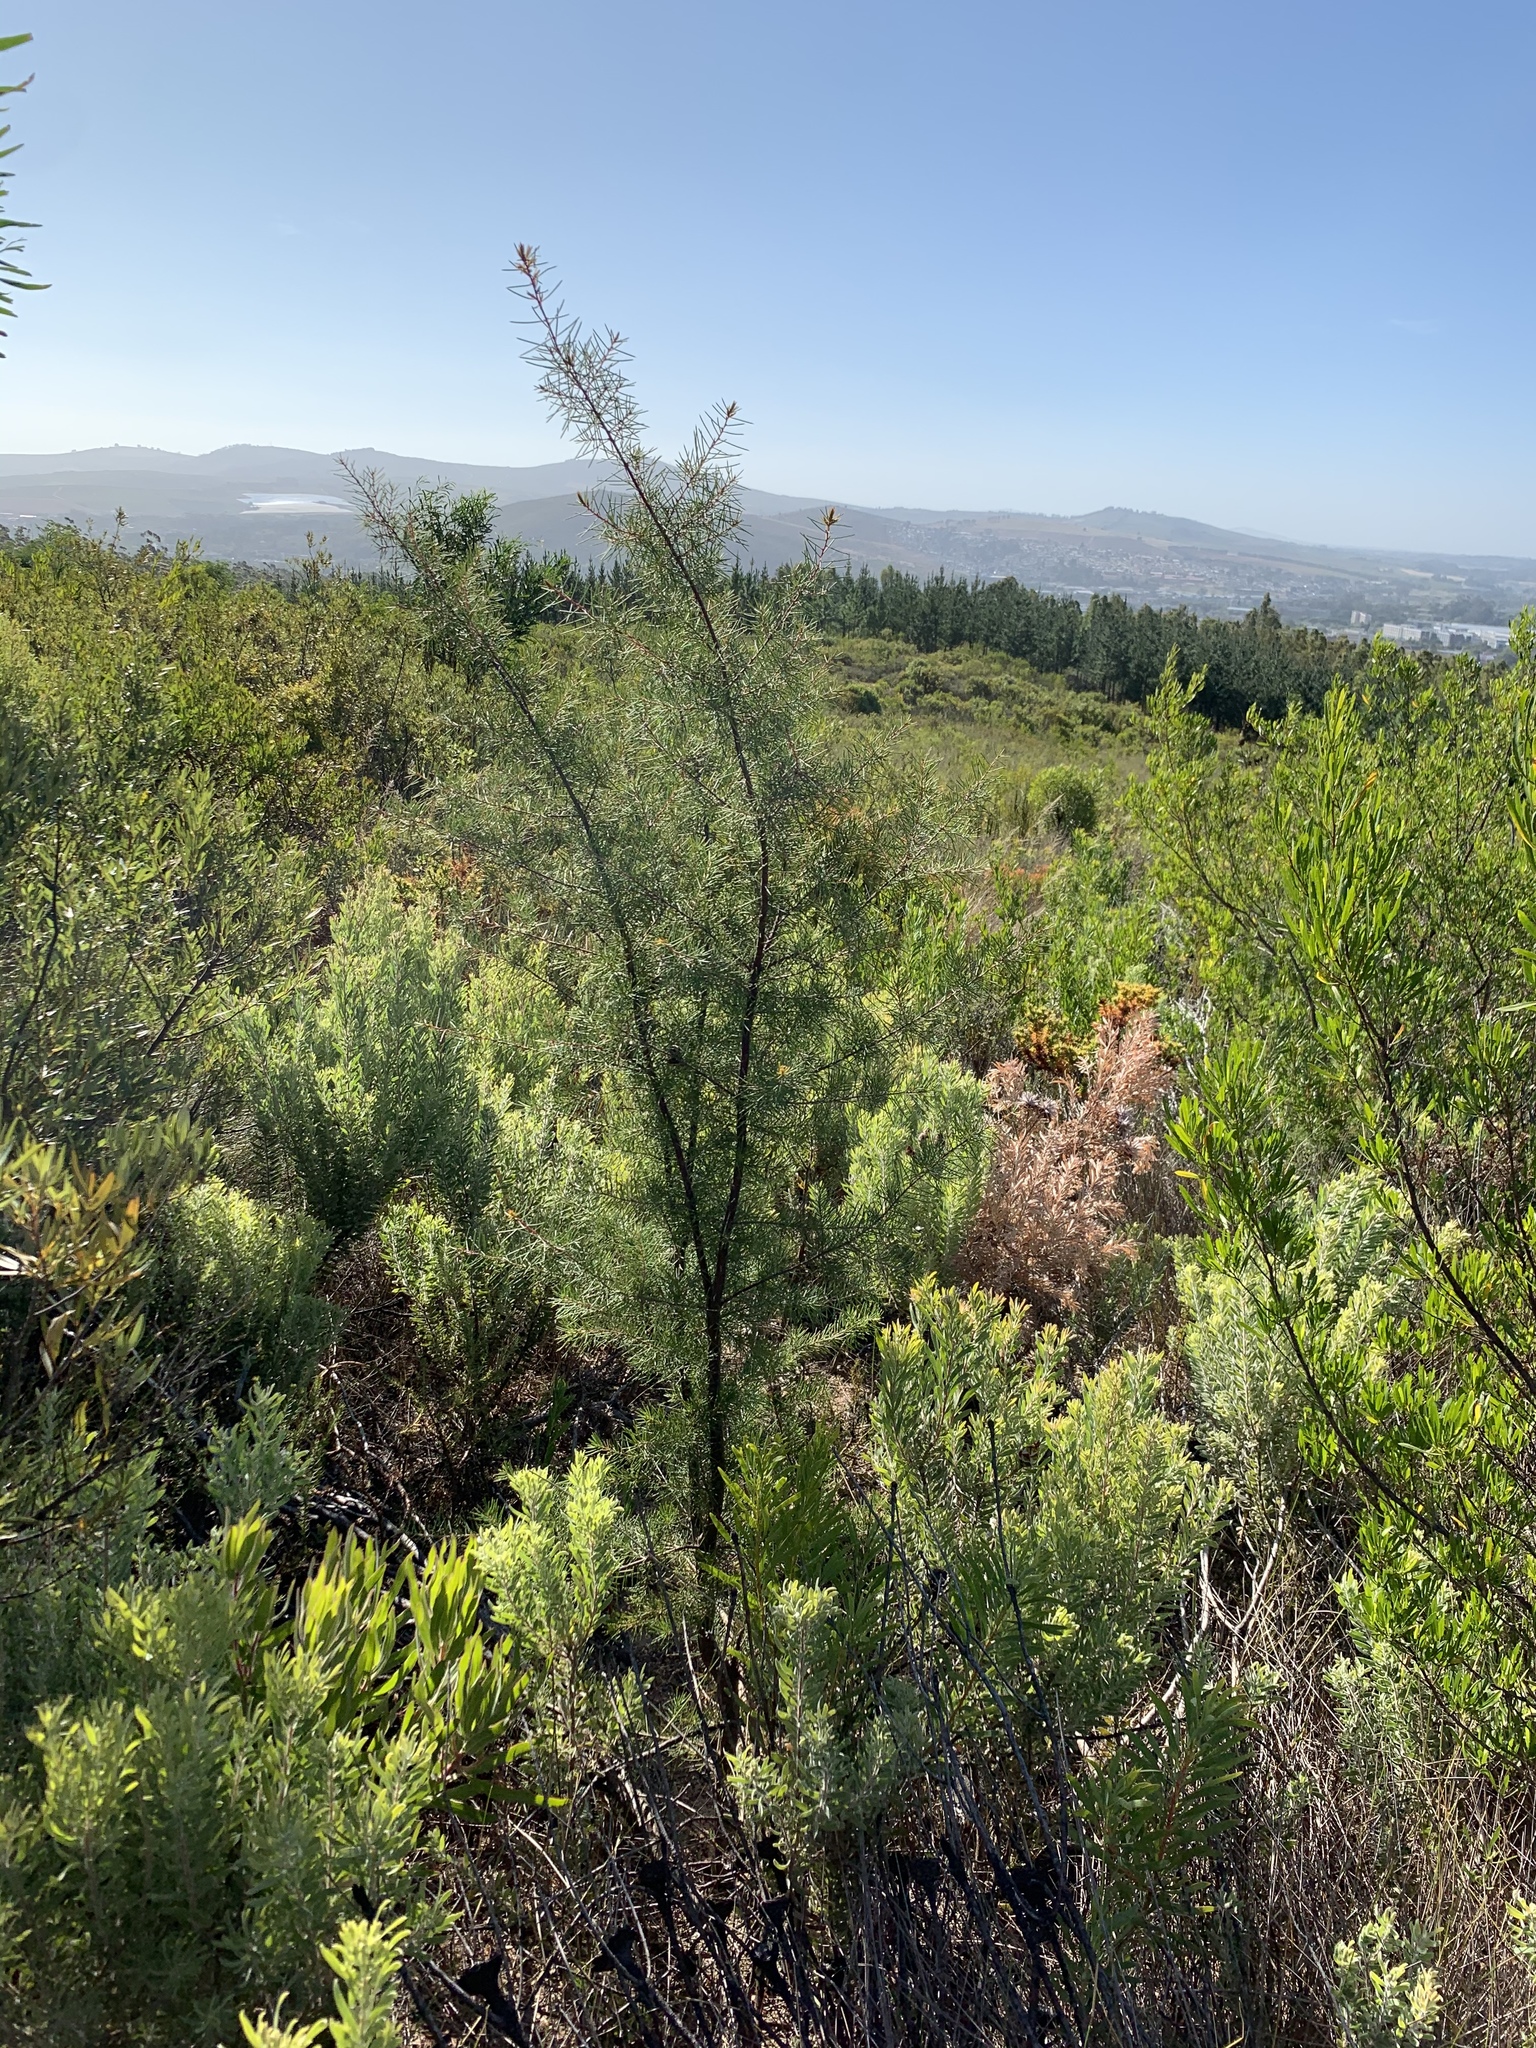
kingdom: Plantae
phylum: Tracheophyta
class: Magnoliopsida
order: Proteales
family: Proteaceae
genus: Hakea
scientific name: Hakea sericea
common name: Needle bush
